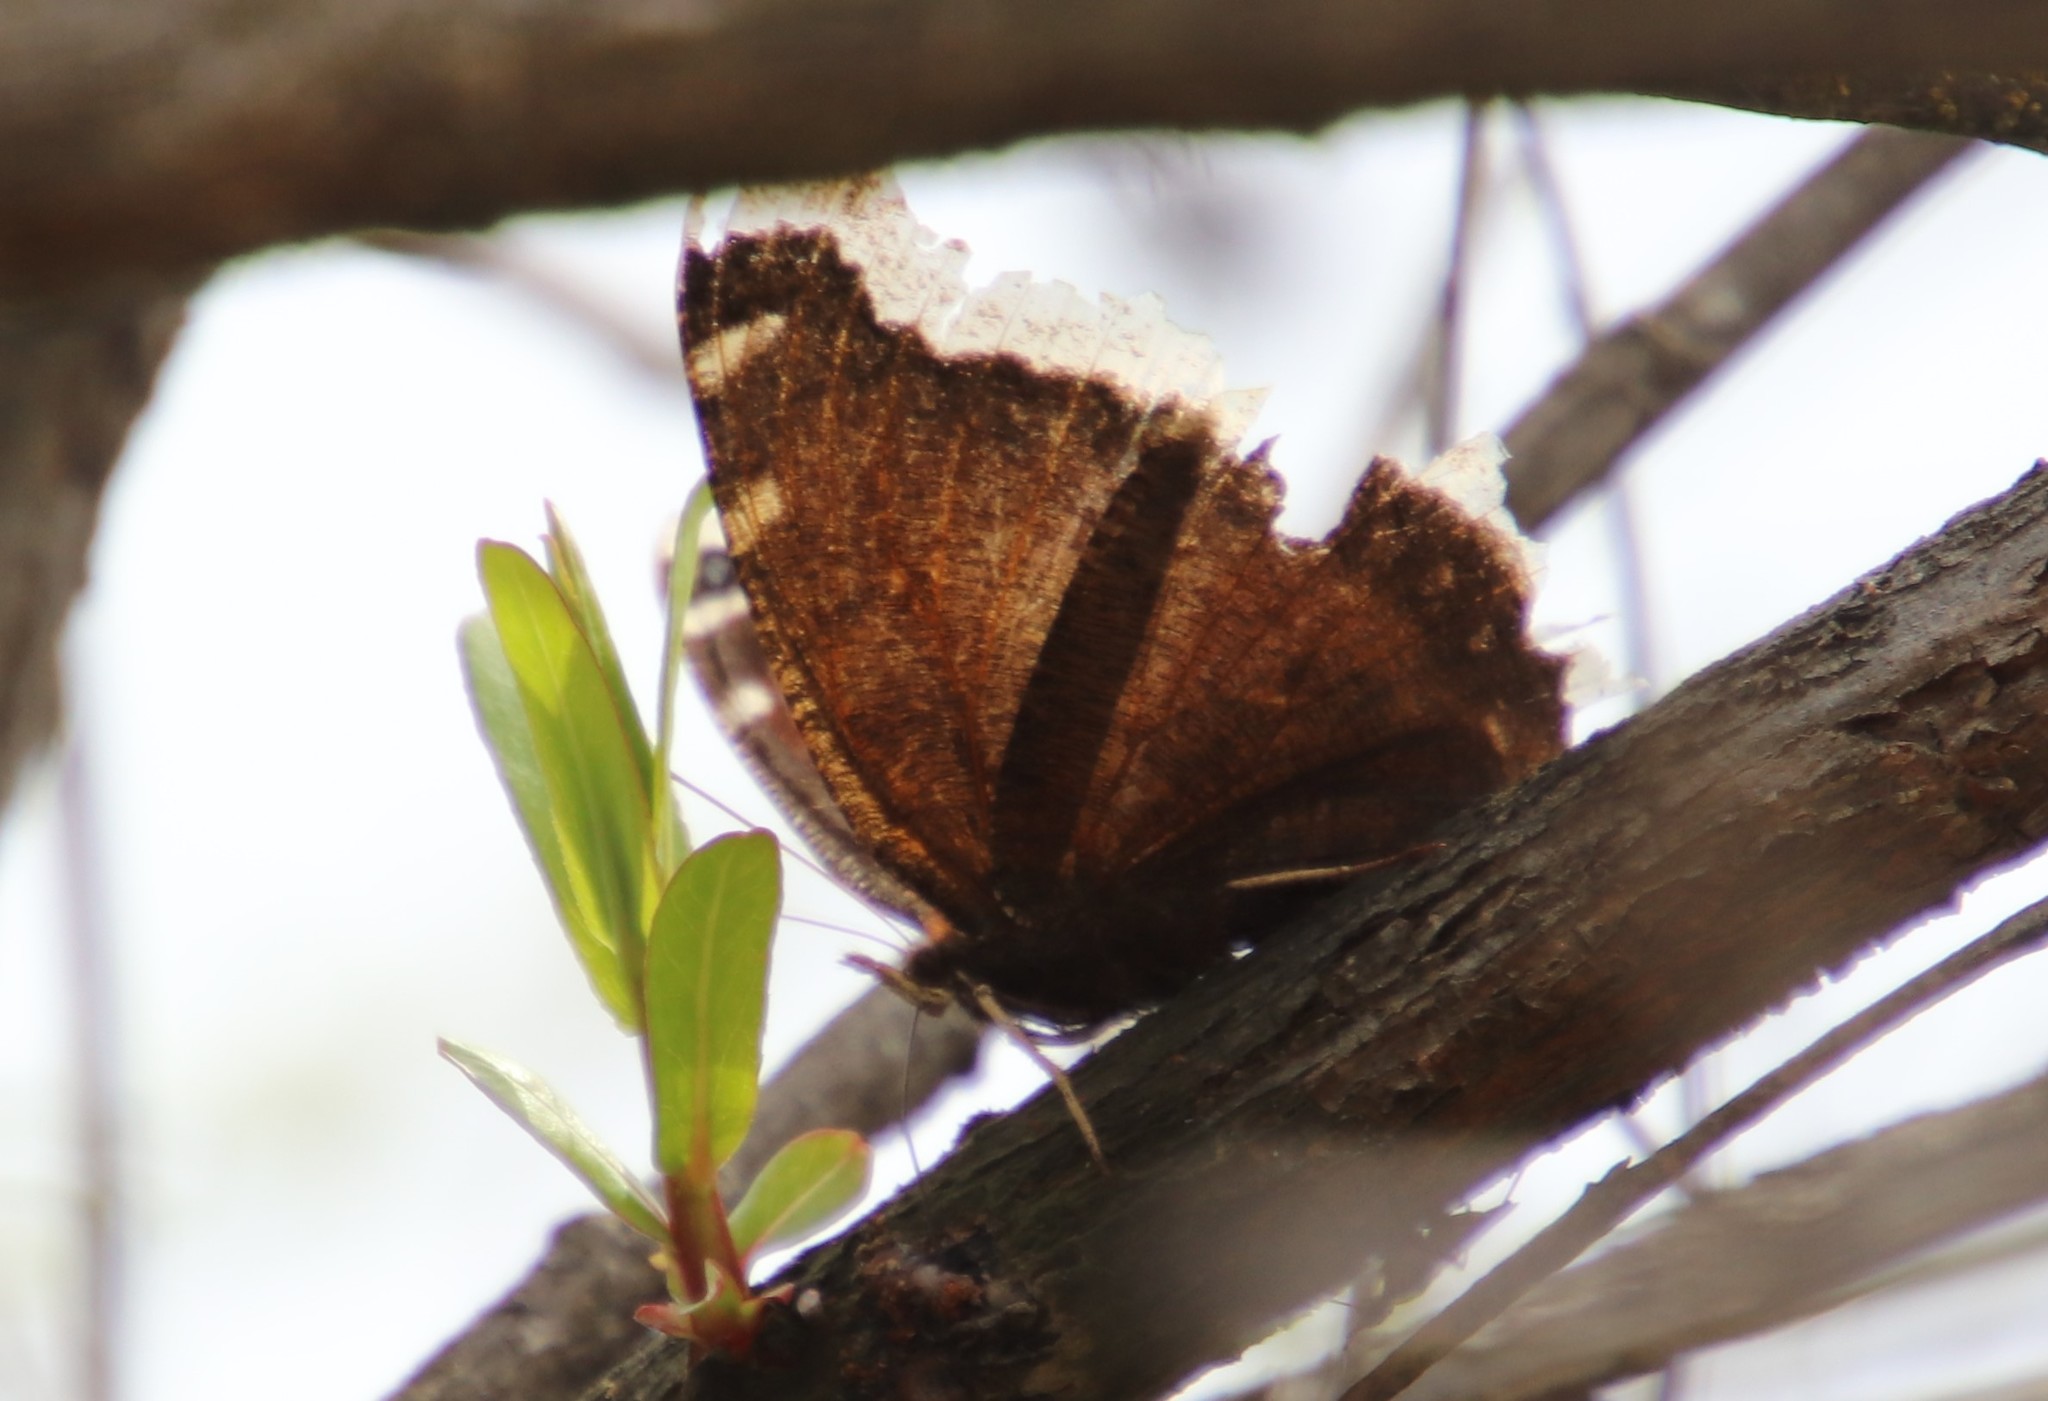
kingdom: Animalia
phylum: Arthropoda
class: Insecta
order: Lepidoptera
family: Nymphalidae
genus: Nymphalis
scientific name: Nymphalis antiopa
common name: Camberwell beauty
